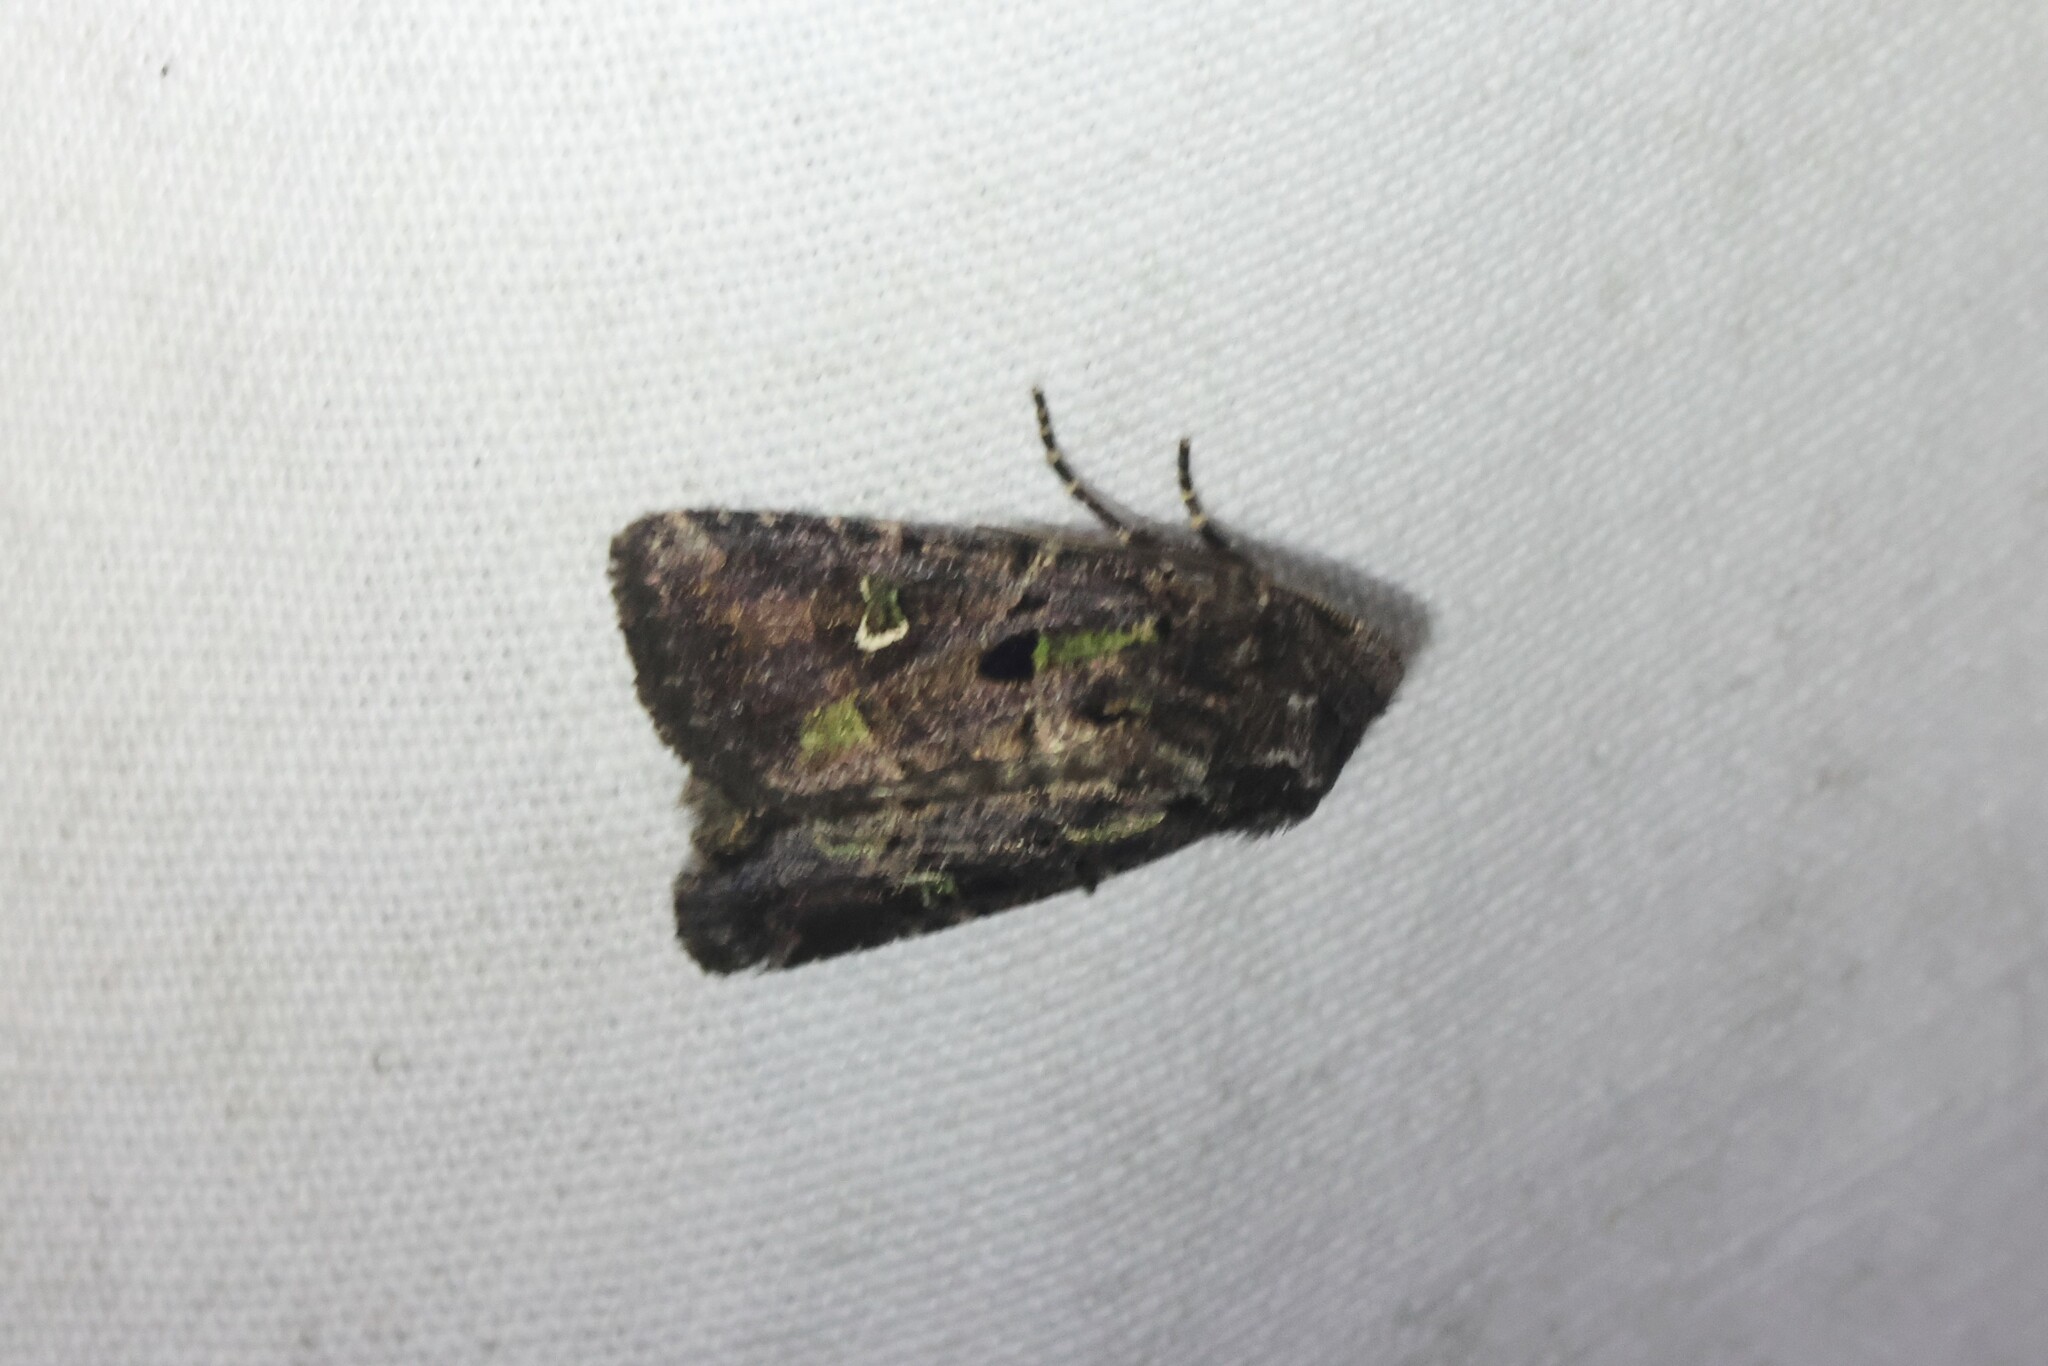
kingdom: Animalia
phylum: Arthropoda
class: Insecta
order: Lepidoptera
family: Noctuidae
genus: Lacinipolia
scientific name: Lacinipolia renigera
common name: Kidney-spotted minor
